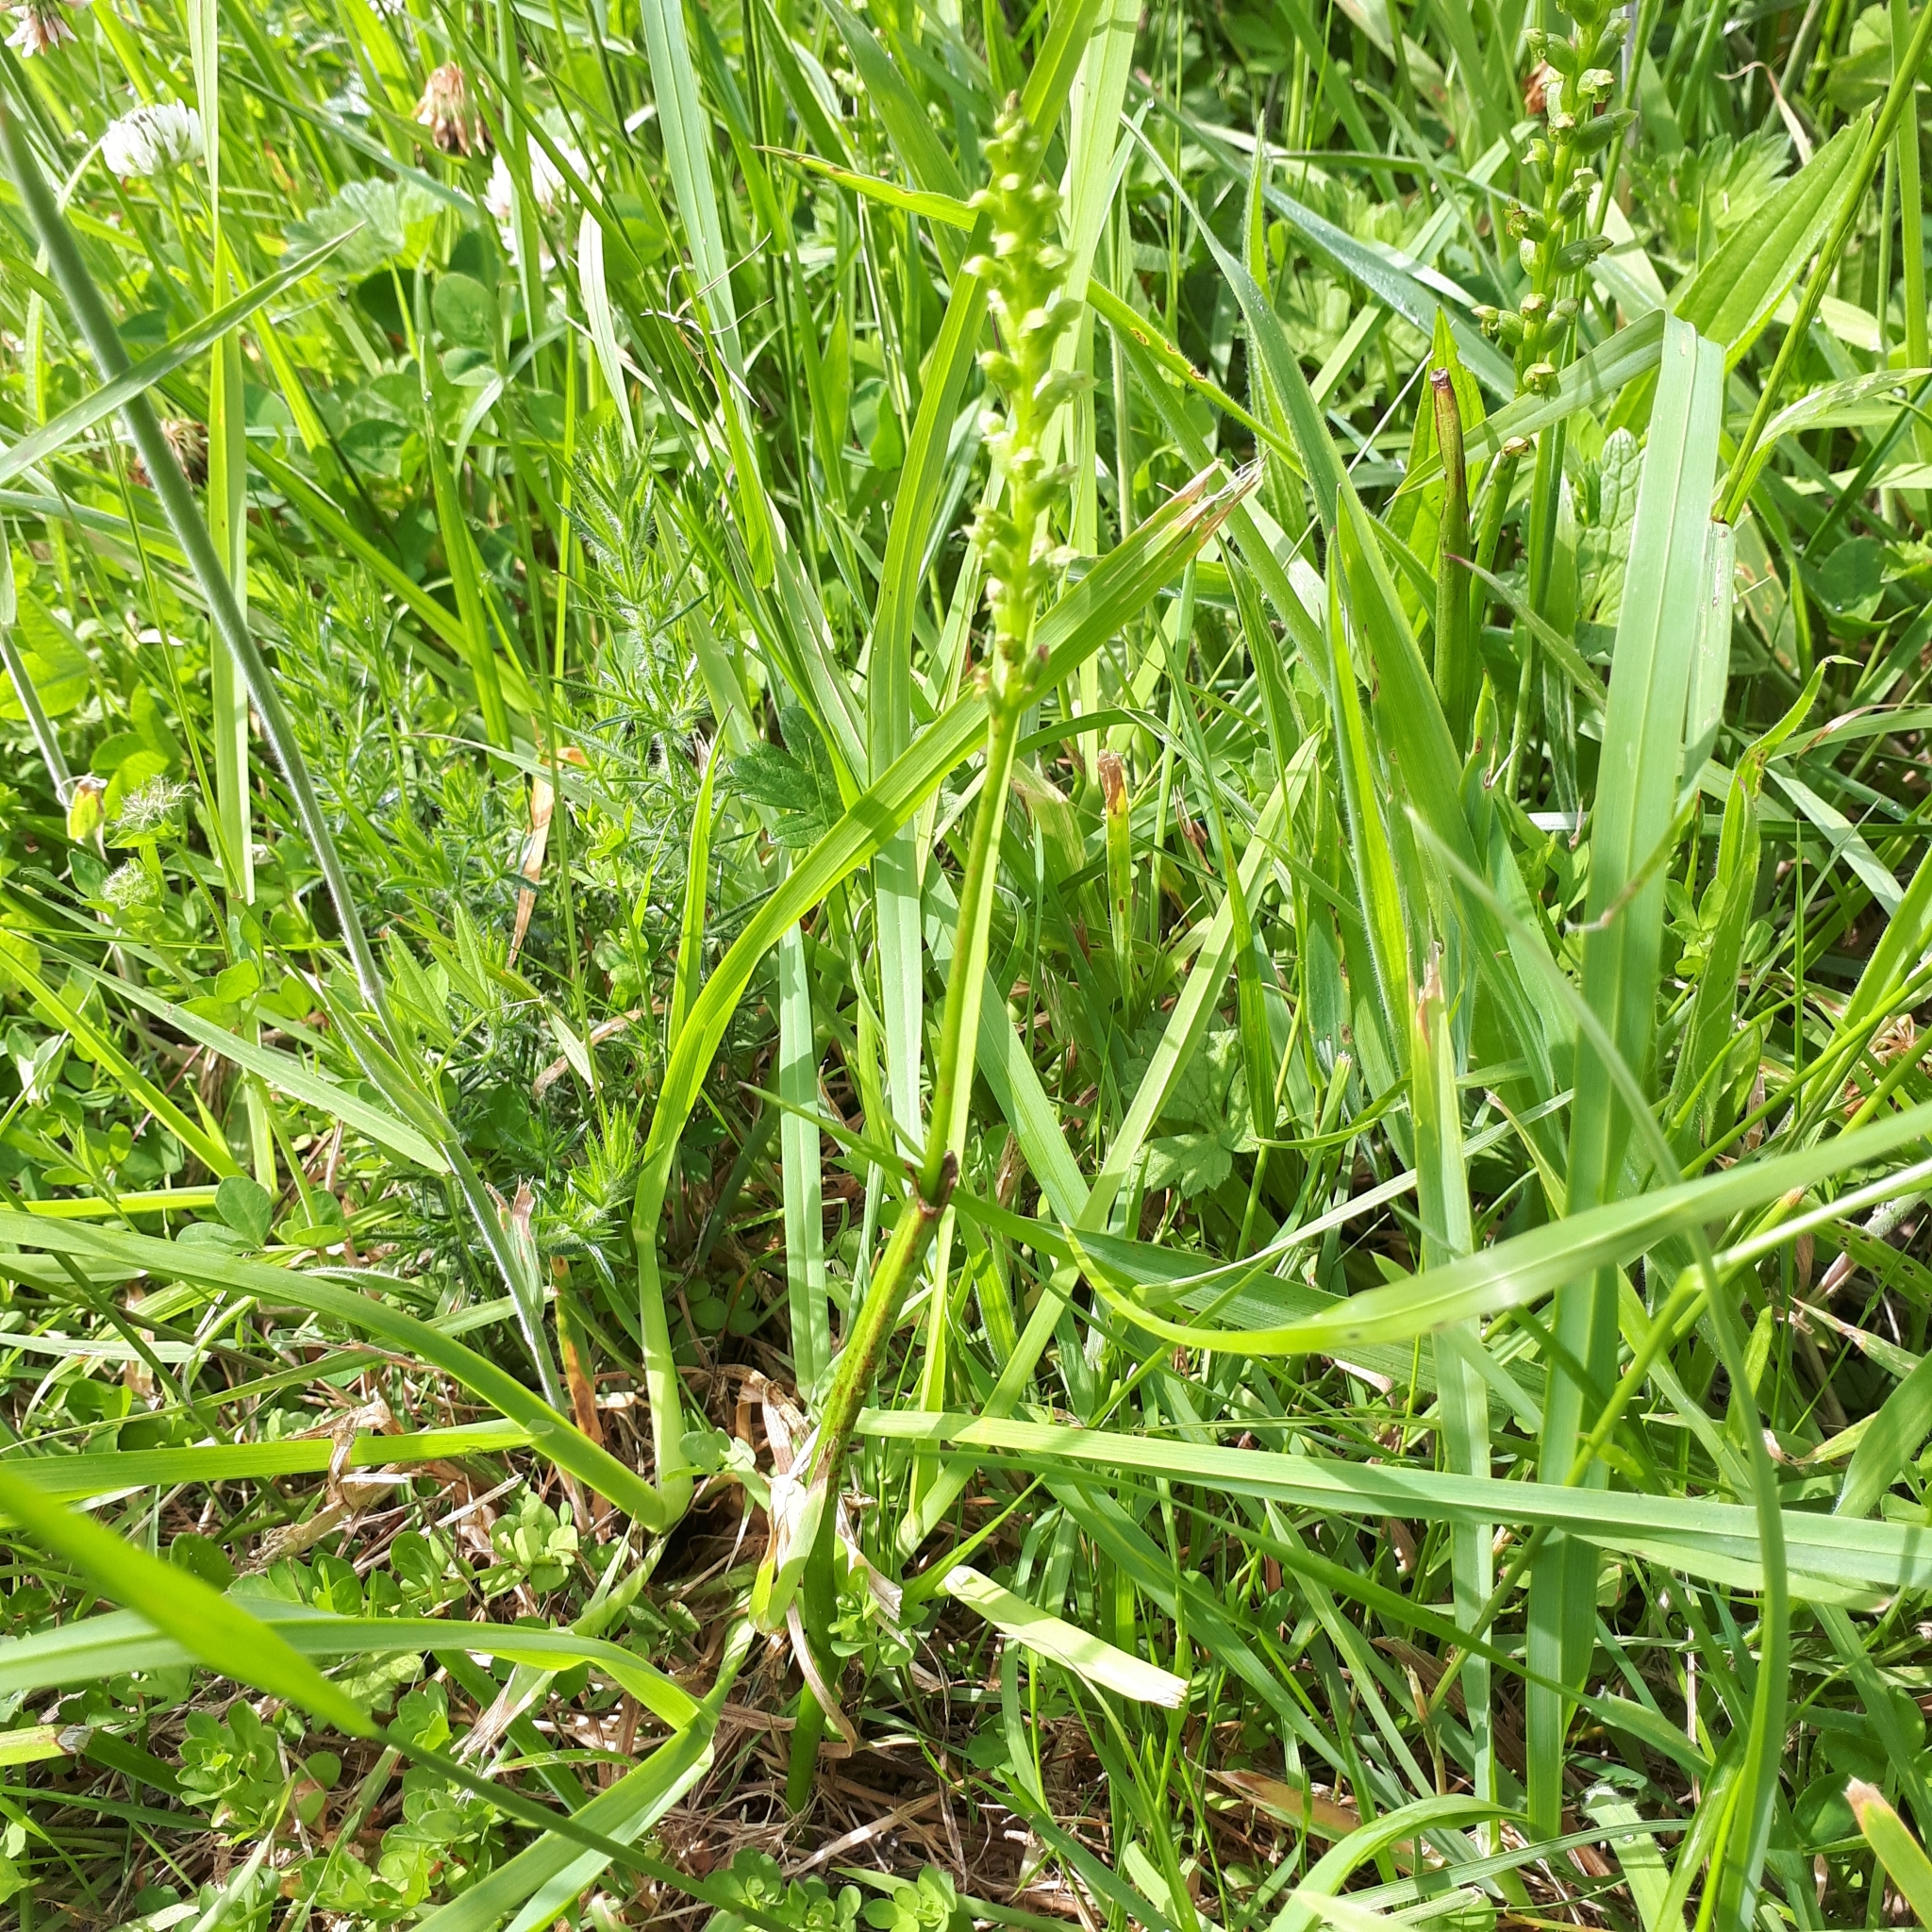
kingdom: Plantae
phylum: Tracheophyta
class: Liliopsida
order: Asparagales
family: Orchidaceae
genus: Microtis
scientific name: Microtis unifolia
